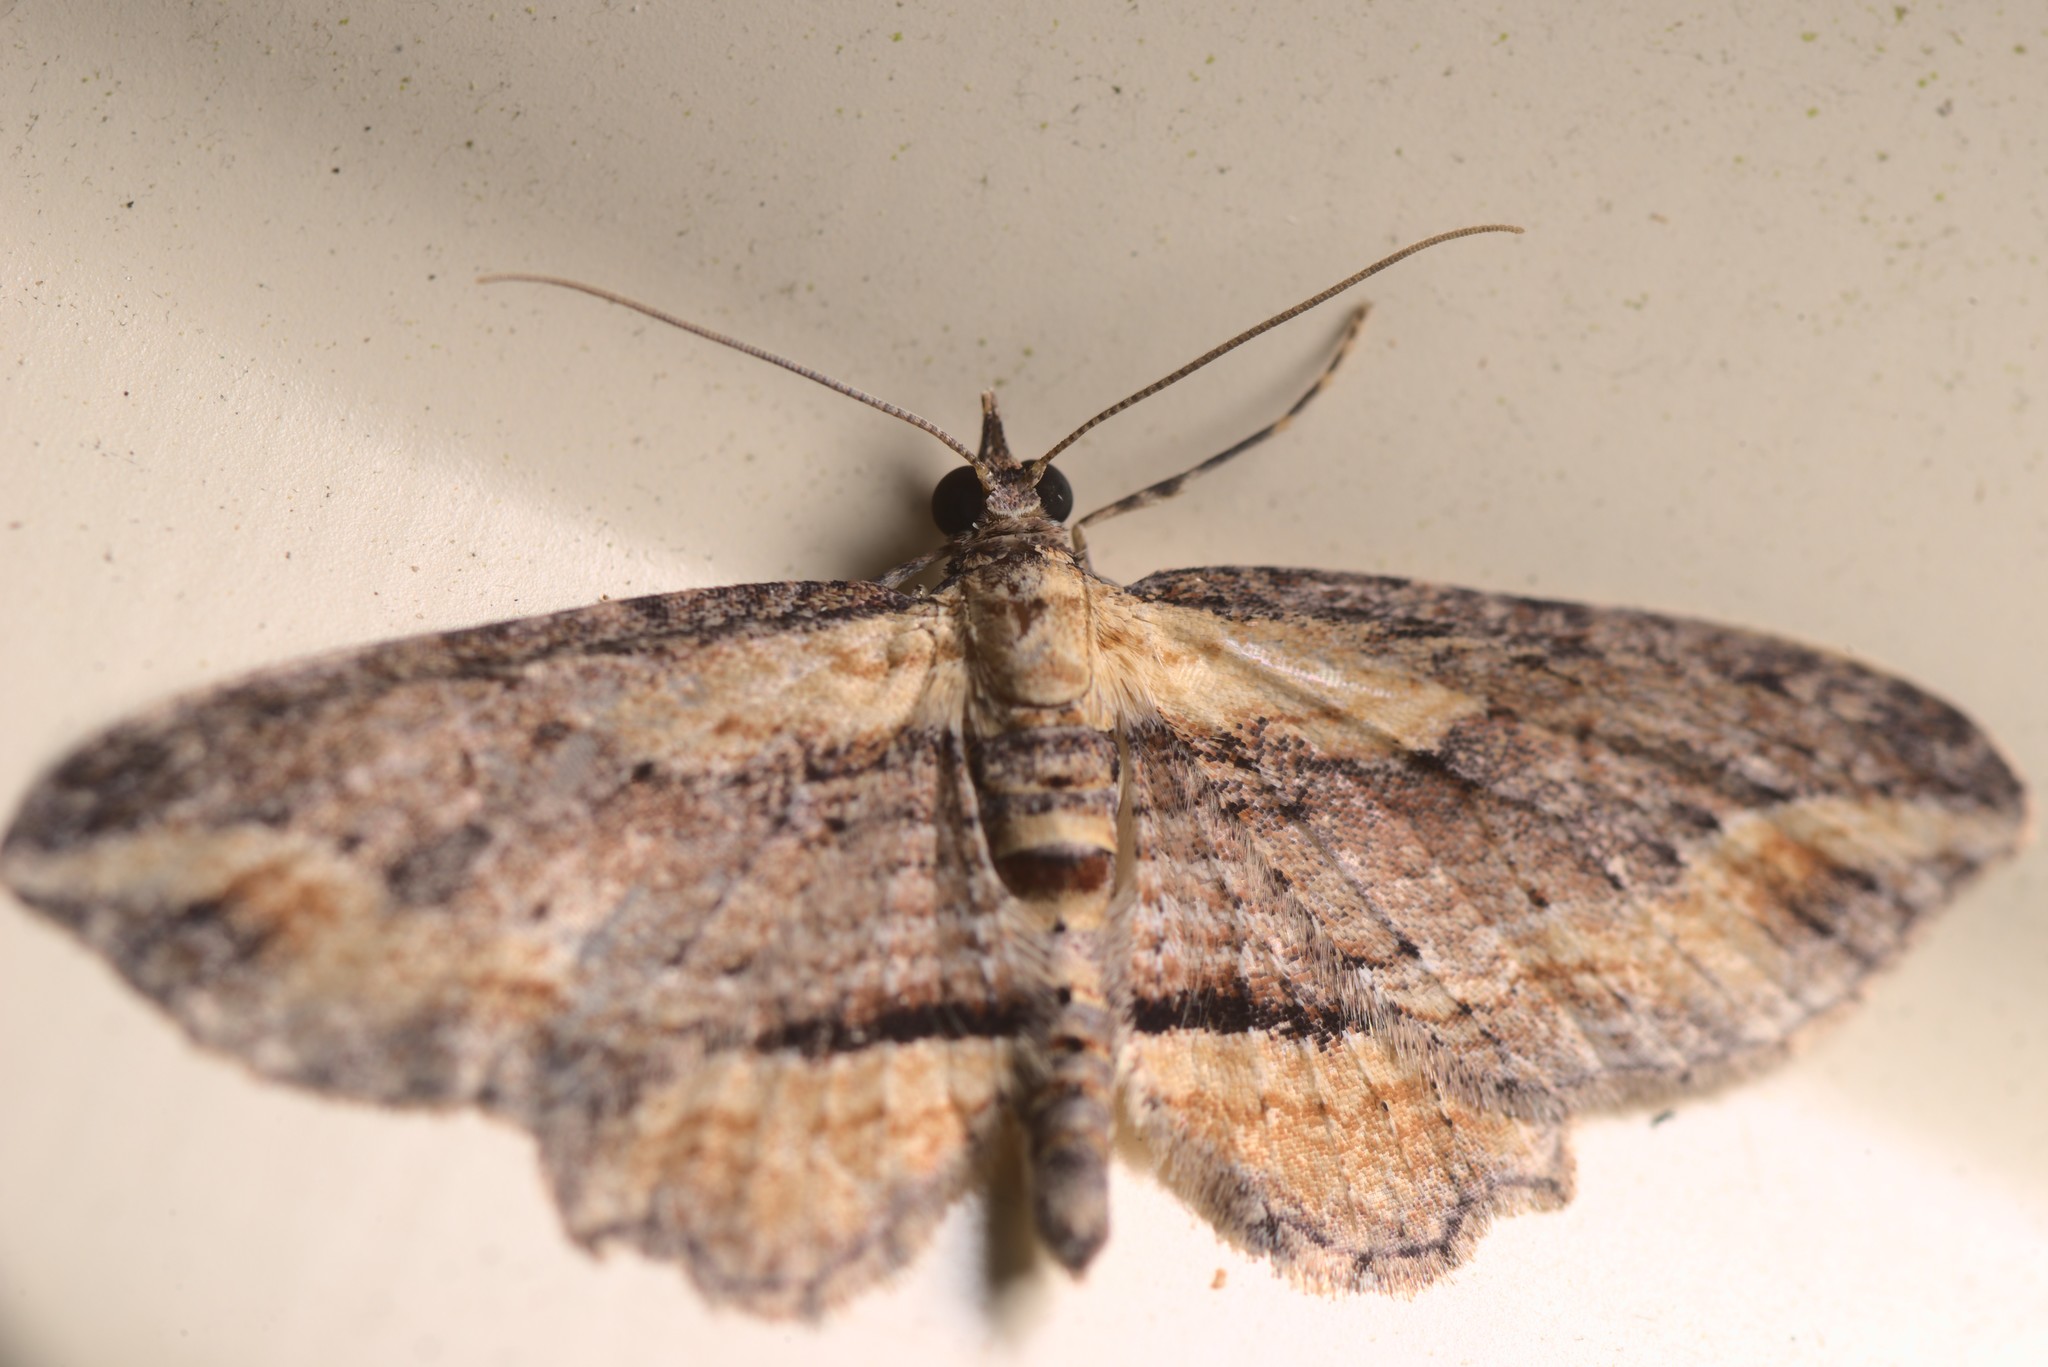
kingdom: Animalia
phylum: Arthropoda
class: Insecta
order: Lepidoptera
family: Geometridae
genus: Chloroclystis
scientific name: Chloroclystis filata
